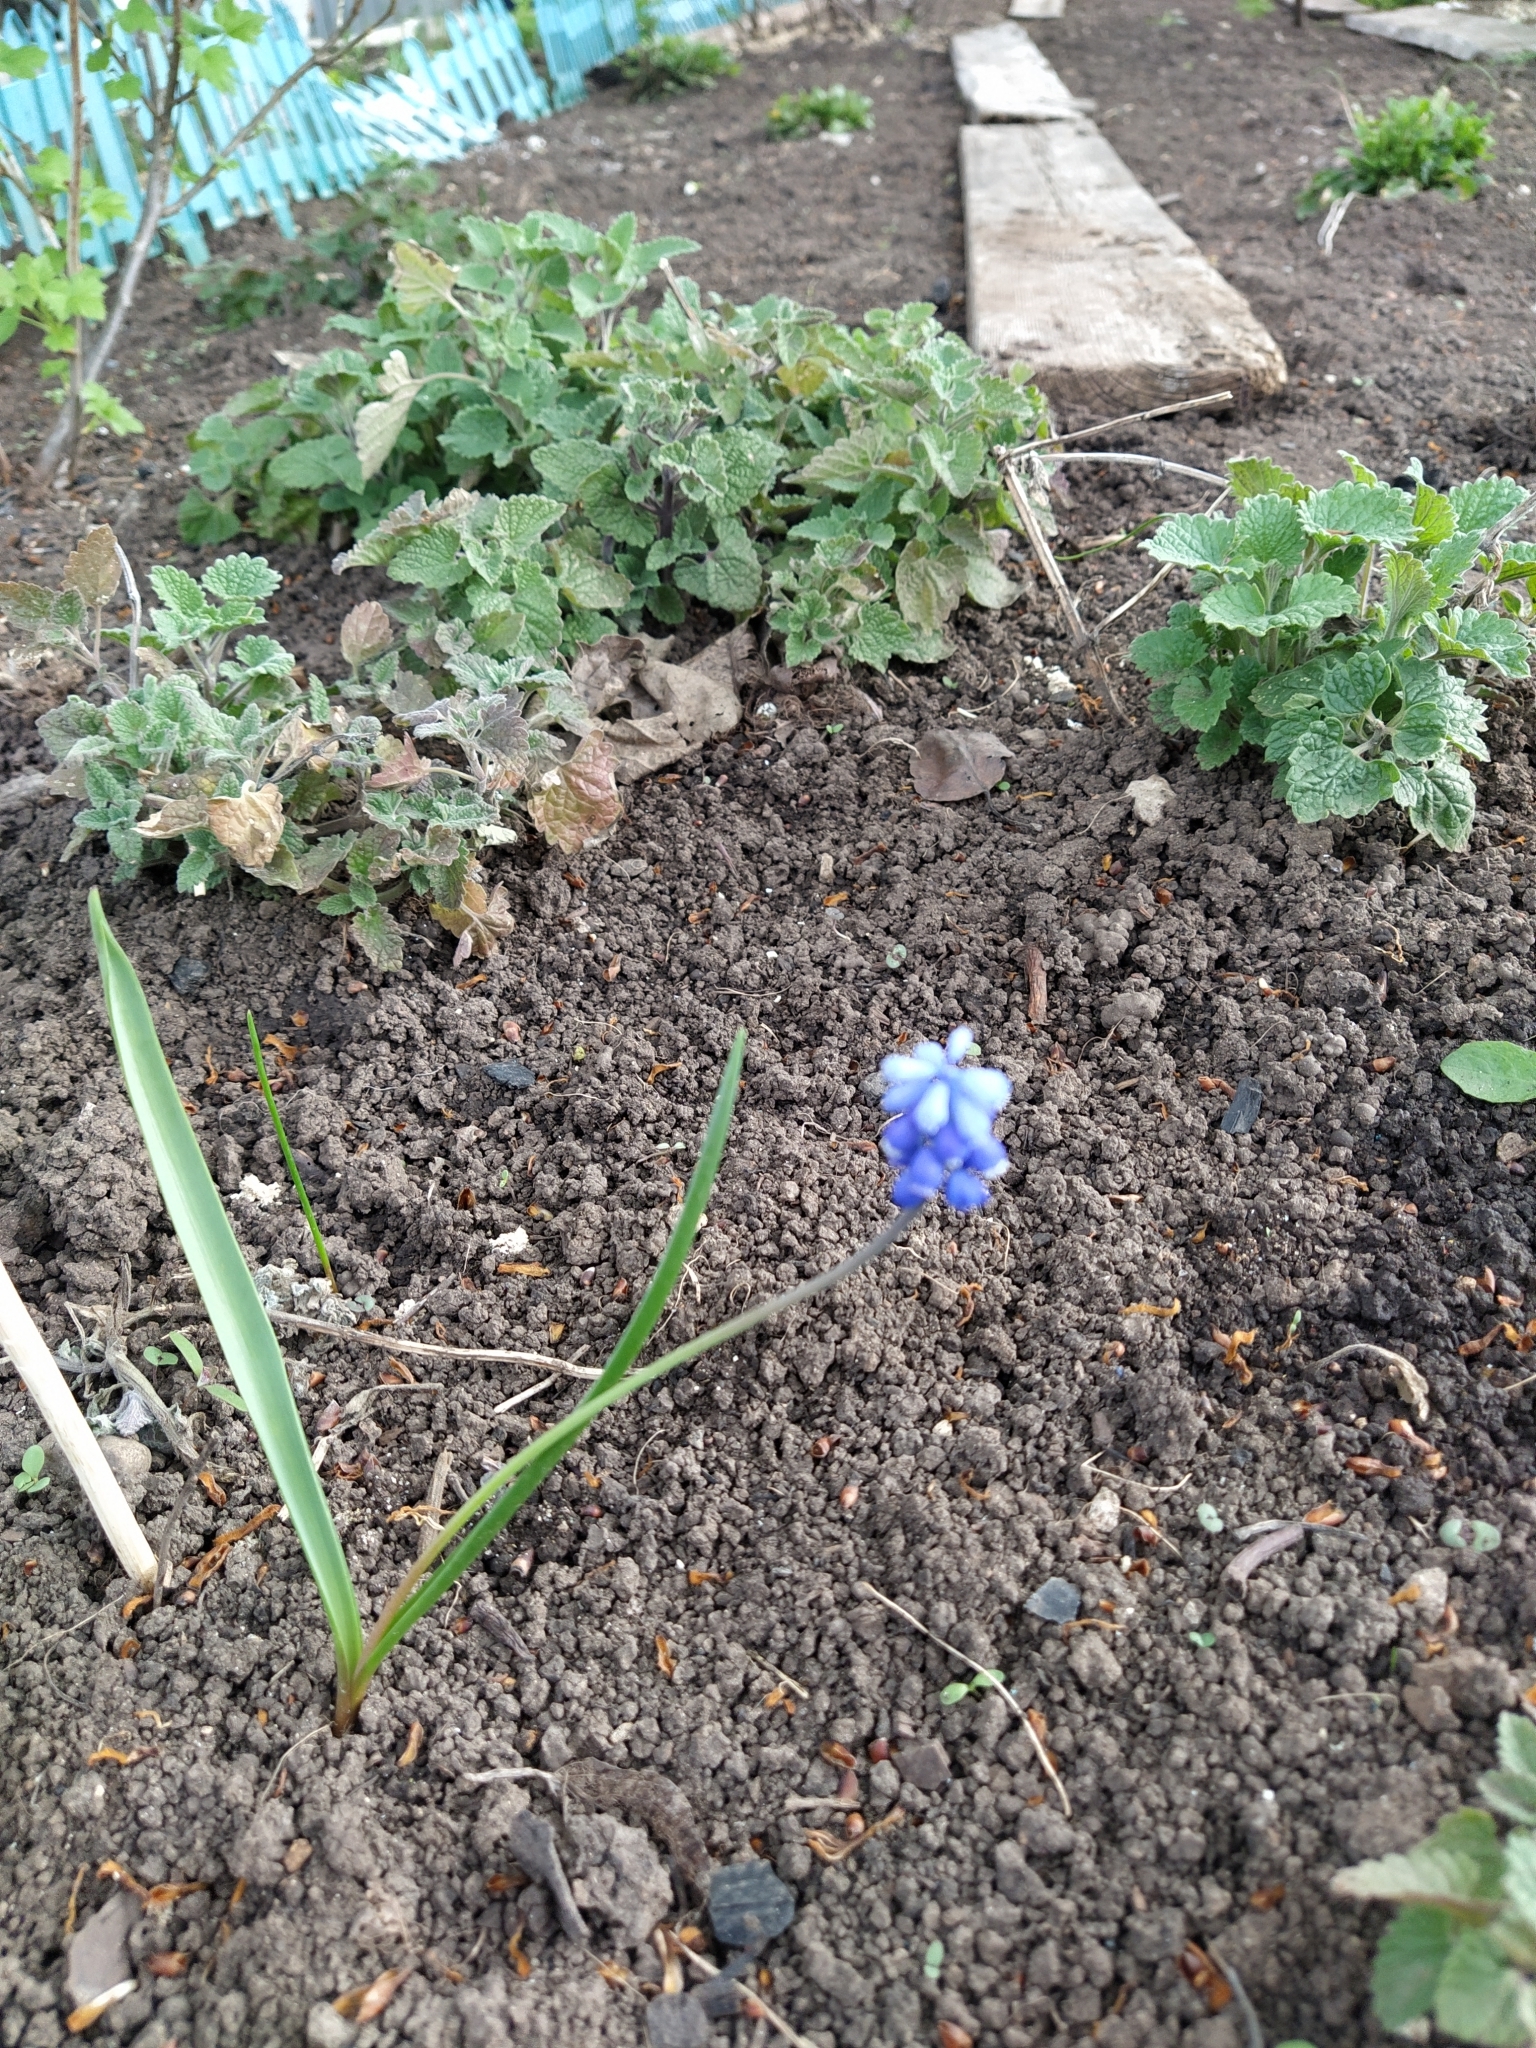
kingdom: Plantae
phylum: Tracheophyta
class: Liliopsida
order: Asparagales
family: Asparagaceae
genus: Muscari
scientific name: Muscari botryoides
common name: Compact grape-hyacinth
